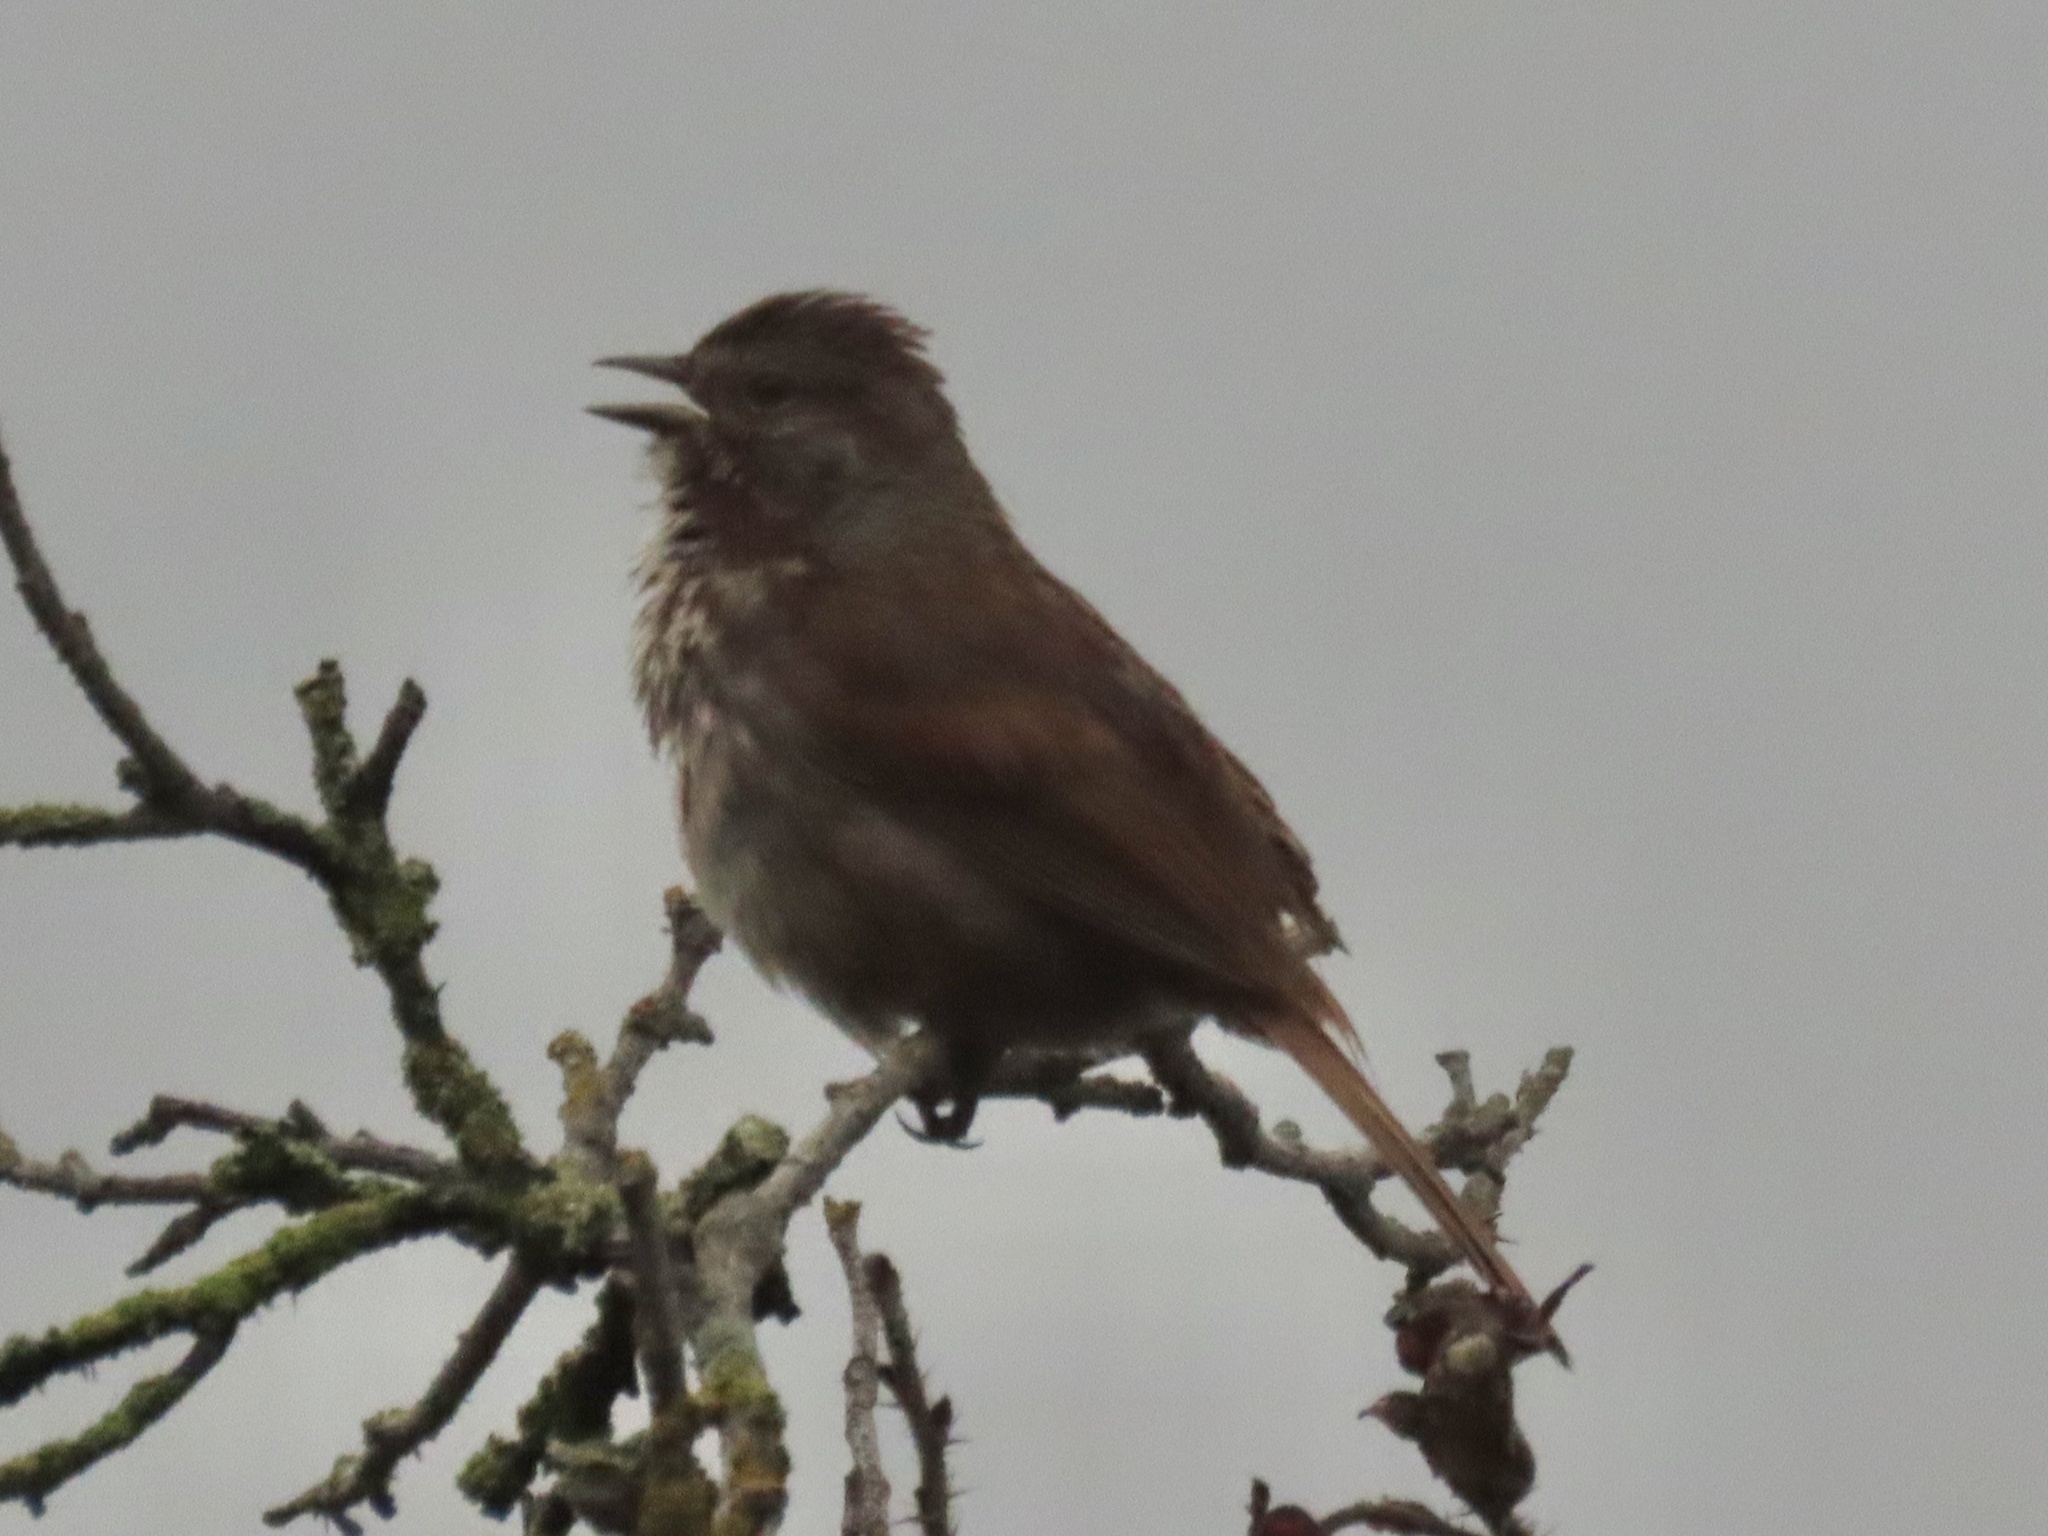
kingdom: Animalia
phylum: Chordata
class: Aves
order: Passeriformes
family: Passerellidae
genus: Melospiza
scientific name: Melospiza melodia
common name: Song sparrow
